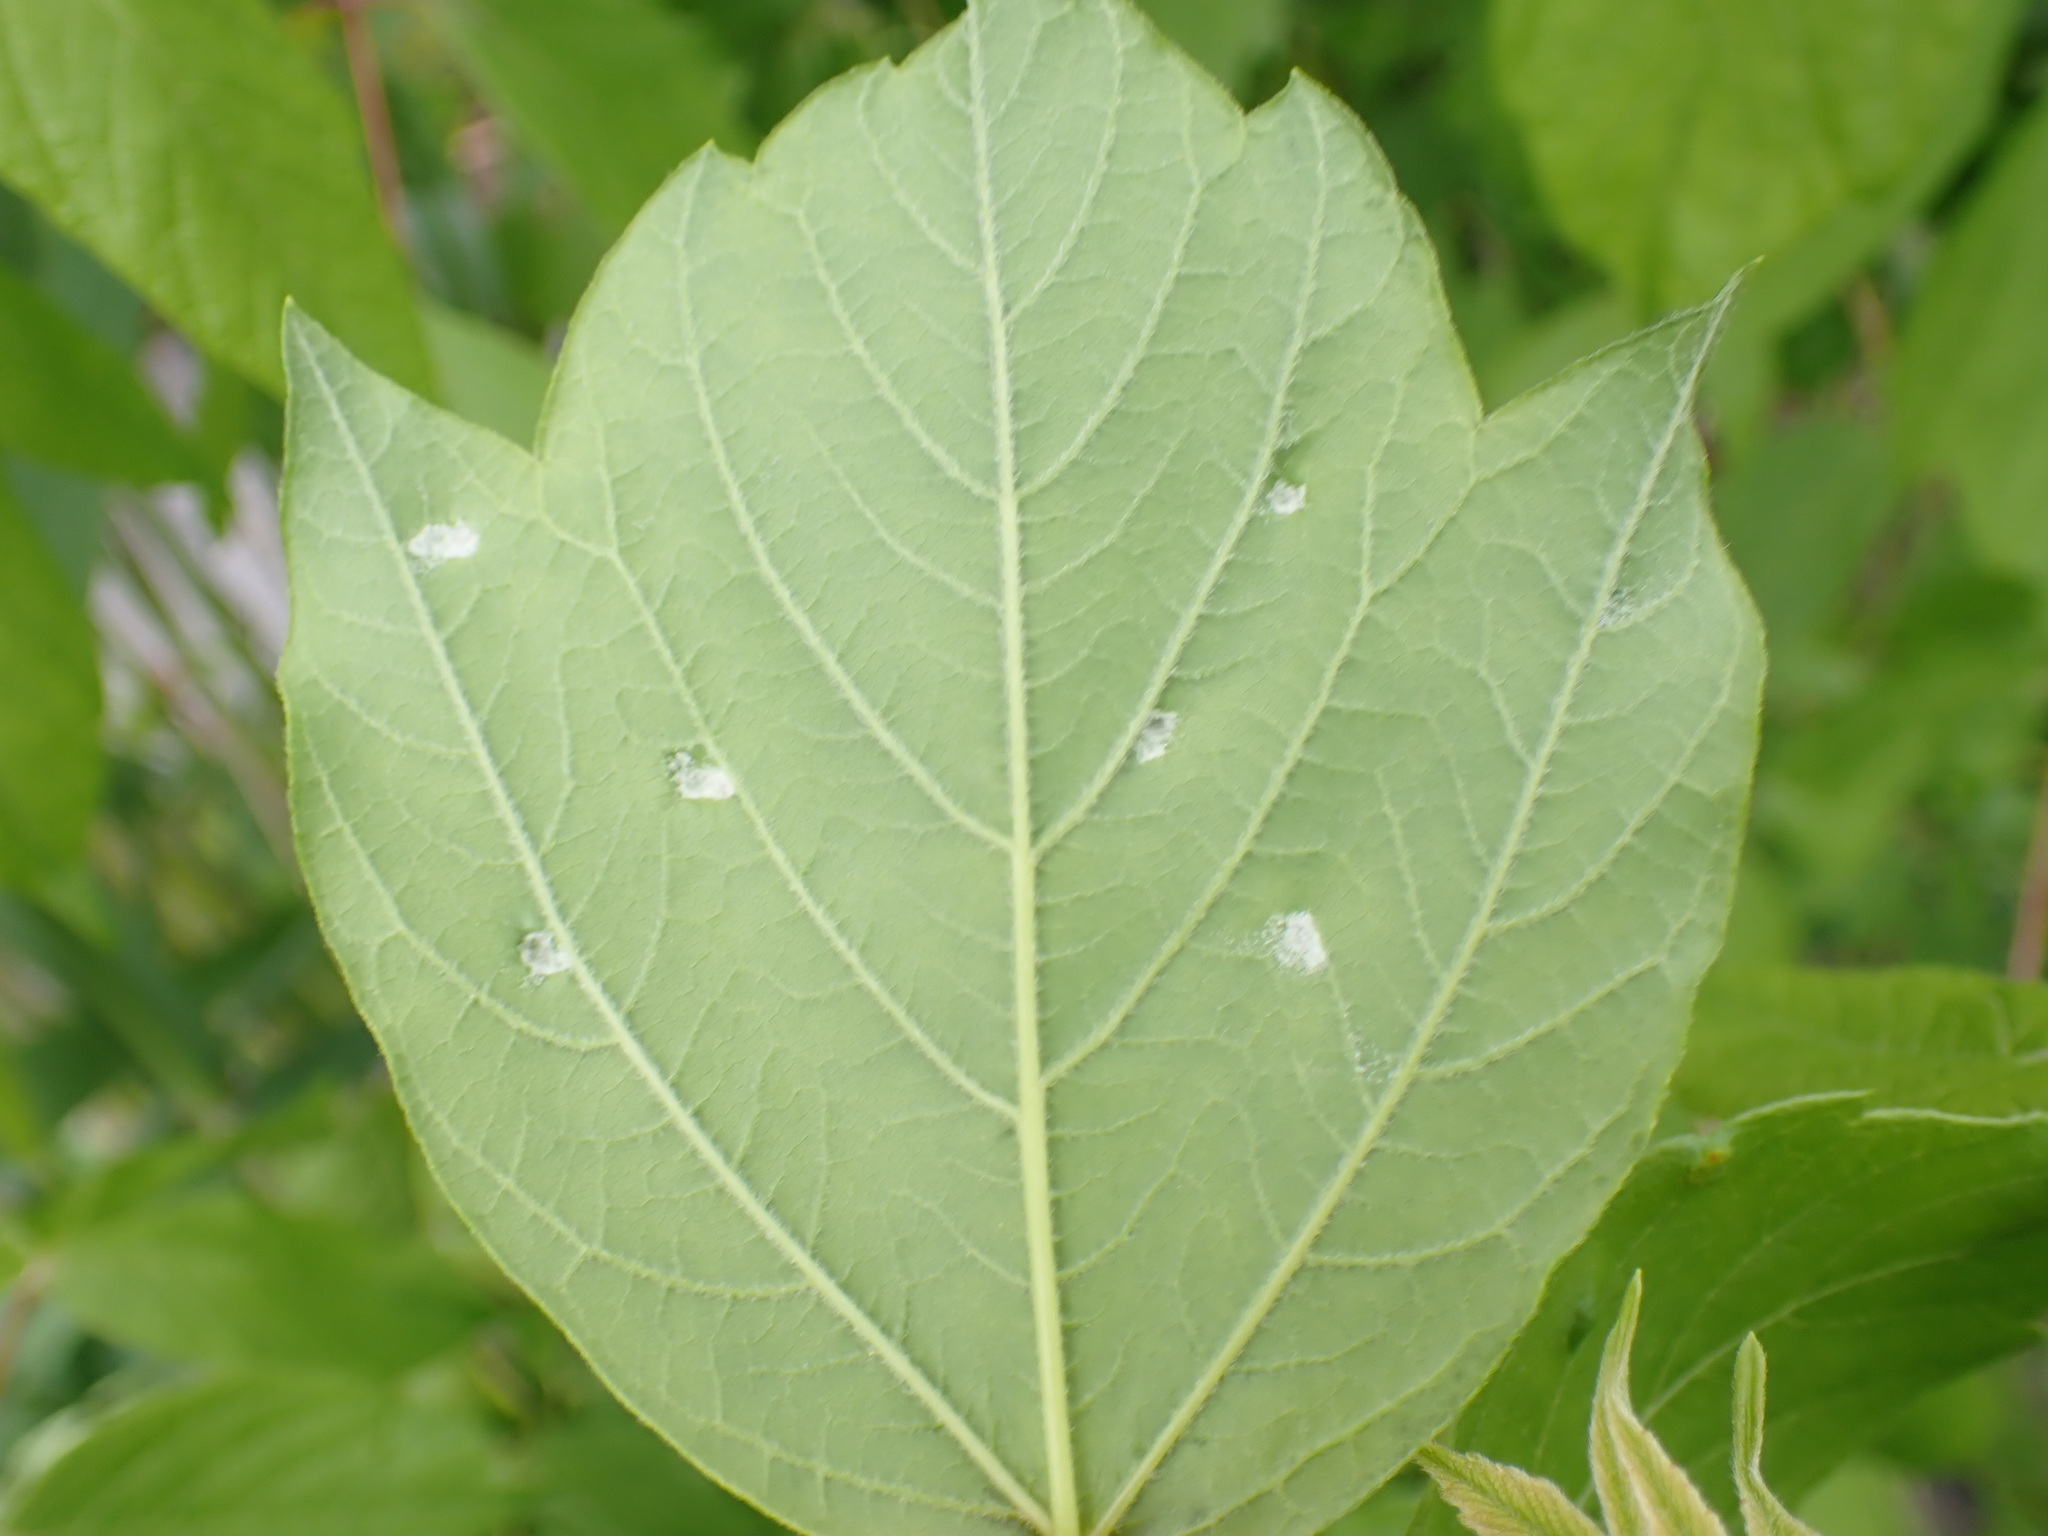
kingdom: Animalia
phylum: Arthropoda
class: Arachnida
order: Trombidiformes
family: Eriophyidae
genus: Aceria
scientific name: Aceria
